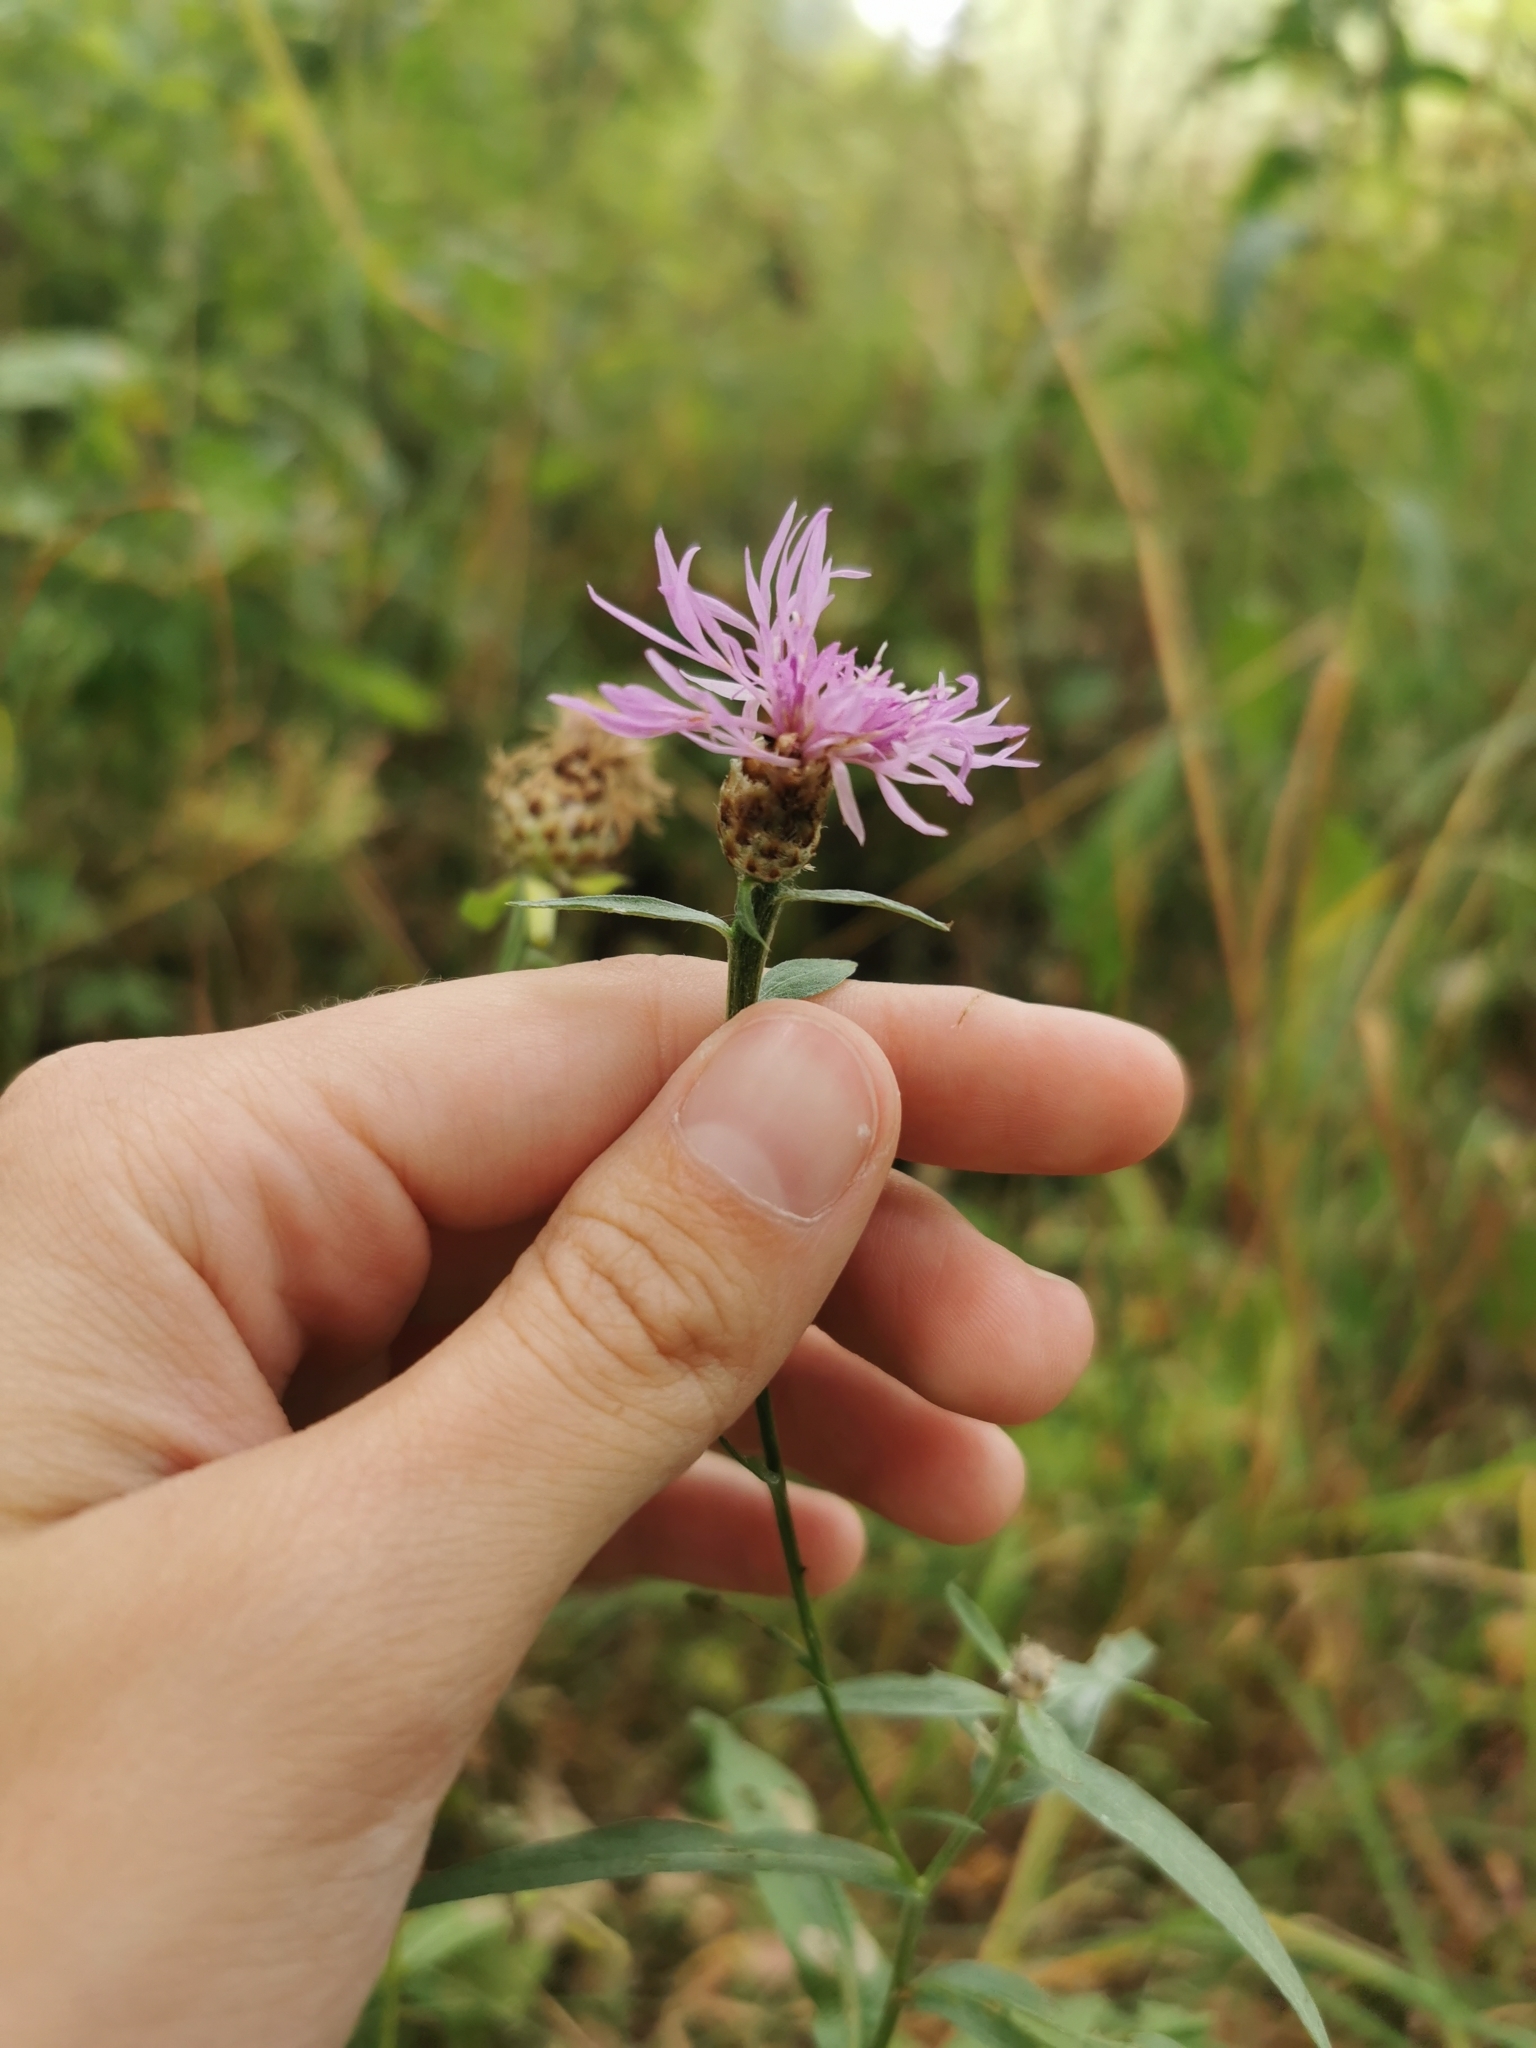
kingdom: Plantae
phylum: Tracheophyta
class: Magnoliopsida
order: Asterales
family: Asteraceae
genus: Centaurea
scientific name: Centaurea jacea
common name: Brown knapweed
